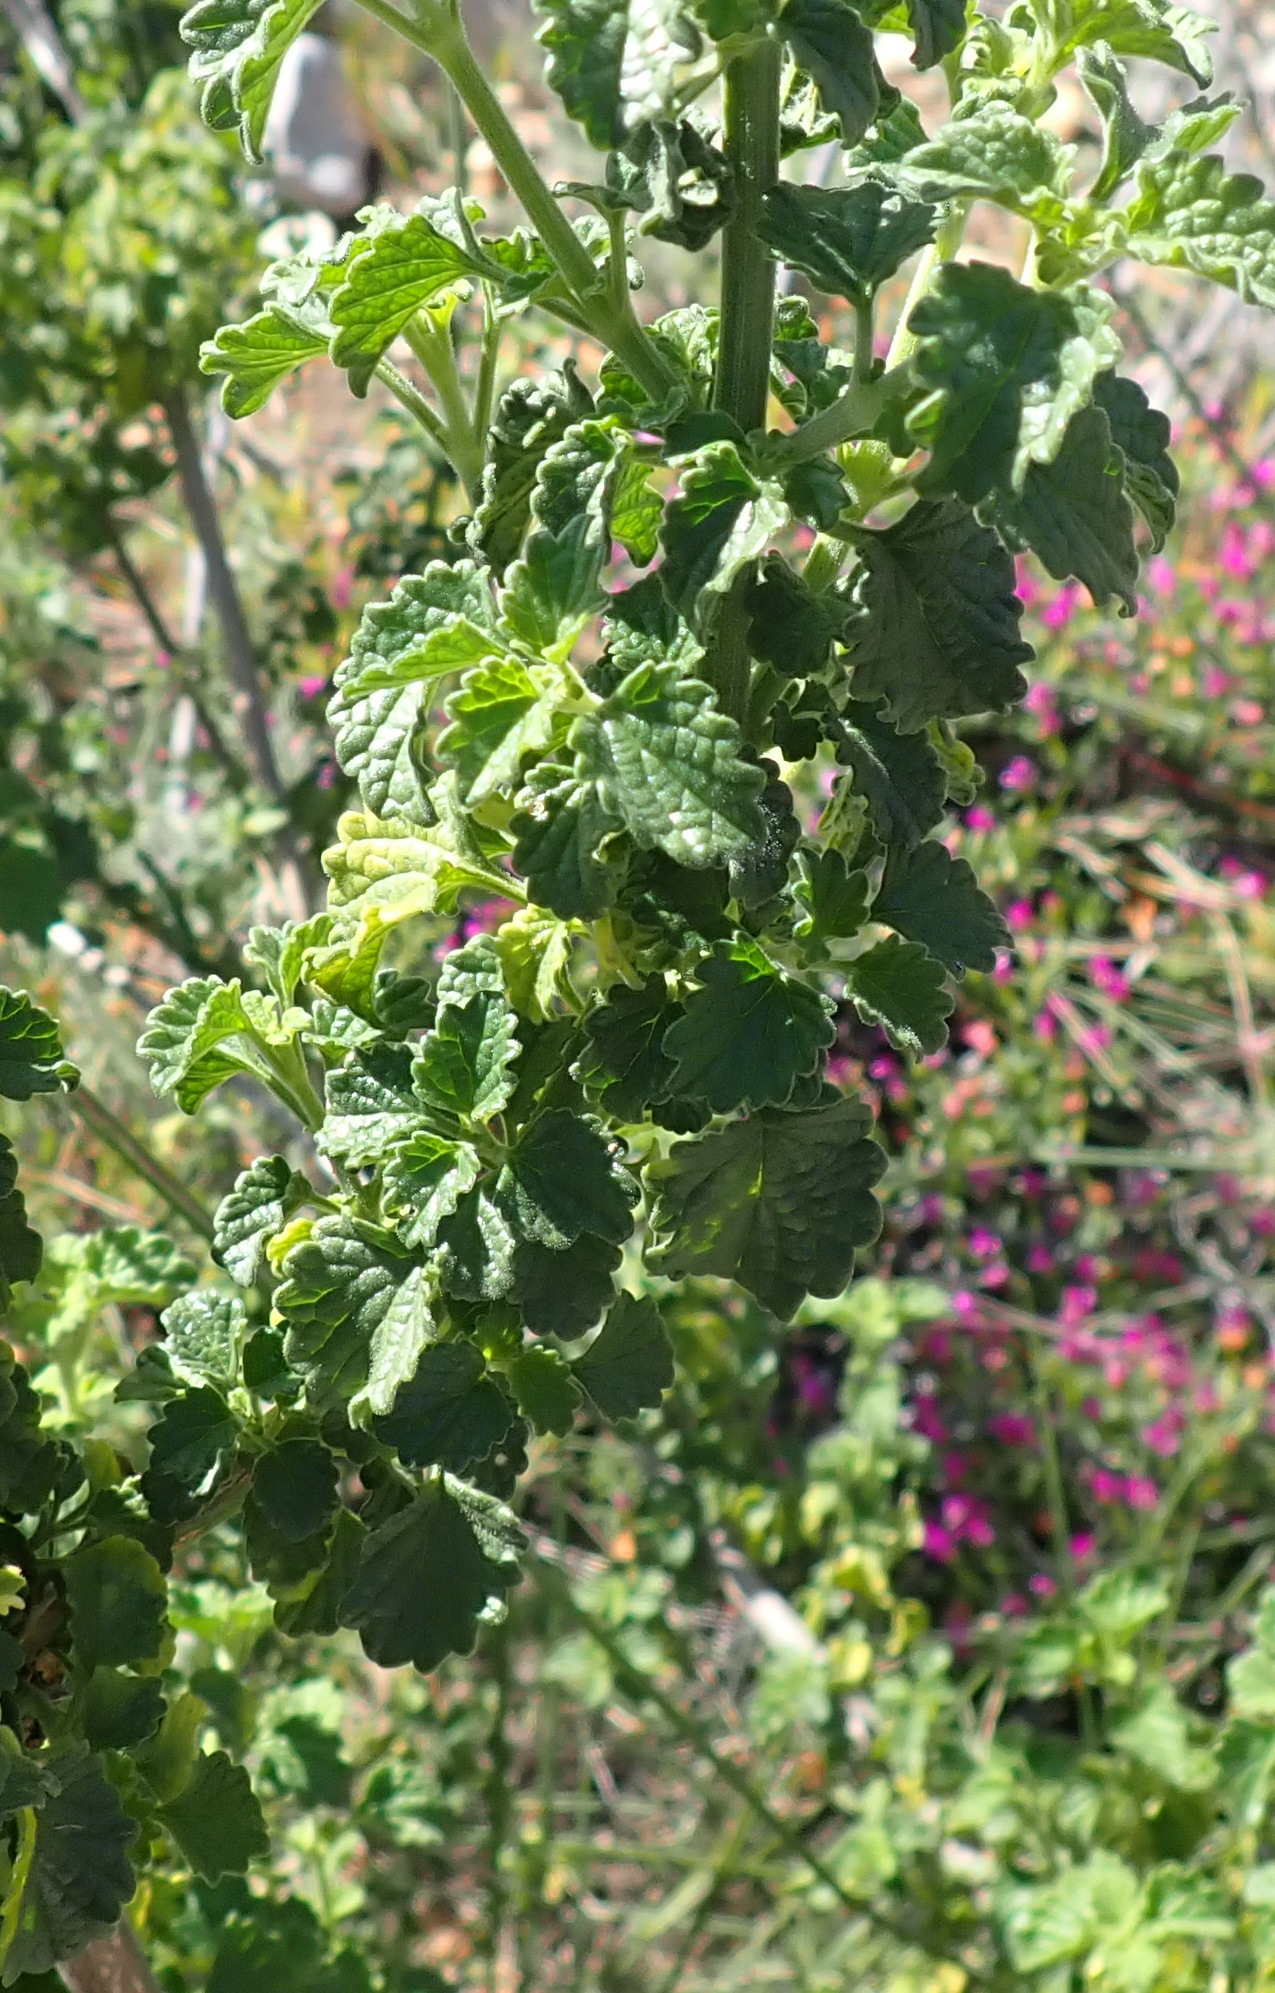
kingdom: Plantae
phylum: Tracheophyta
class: Magnoliopsida
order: Lamiales
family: Lamiaceae
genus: Leonotis
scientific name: Leonotis ocymifolia
